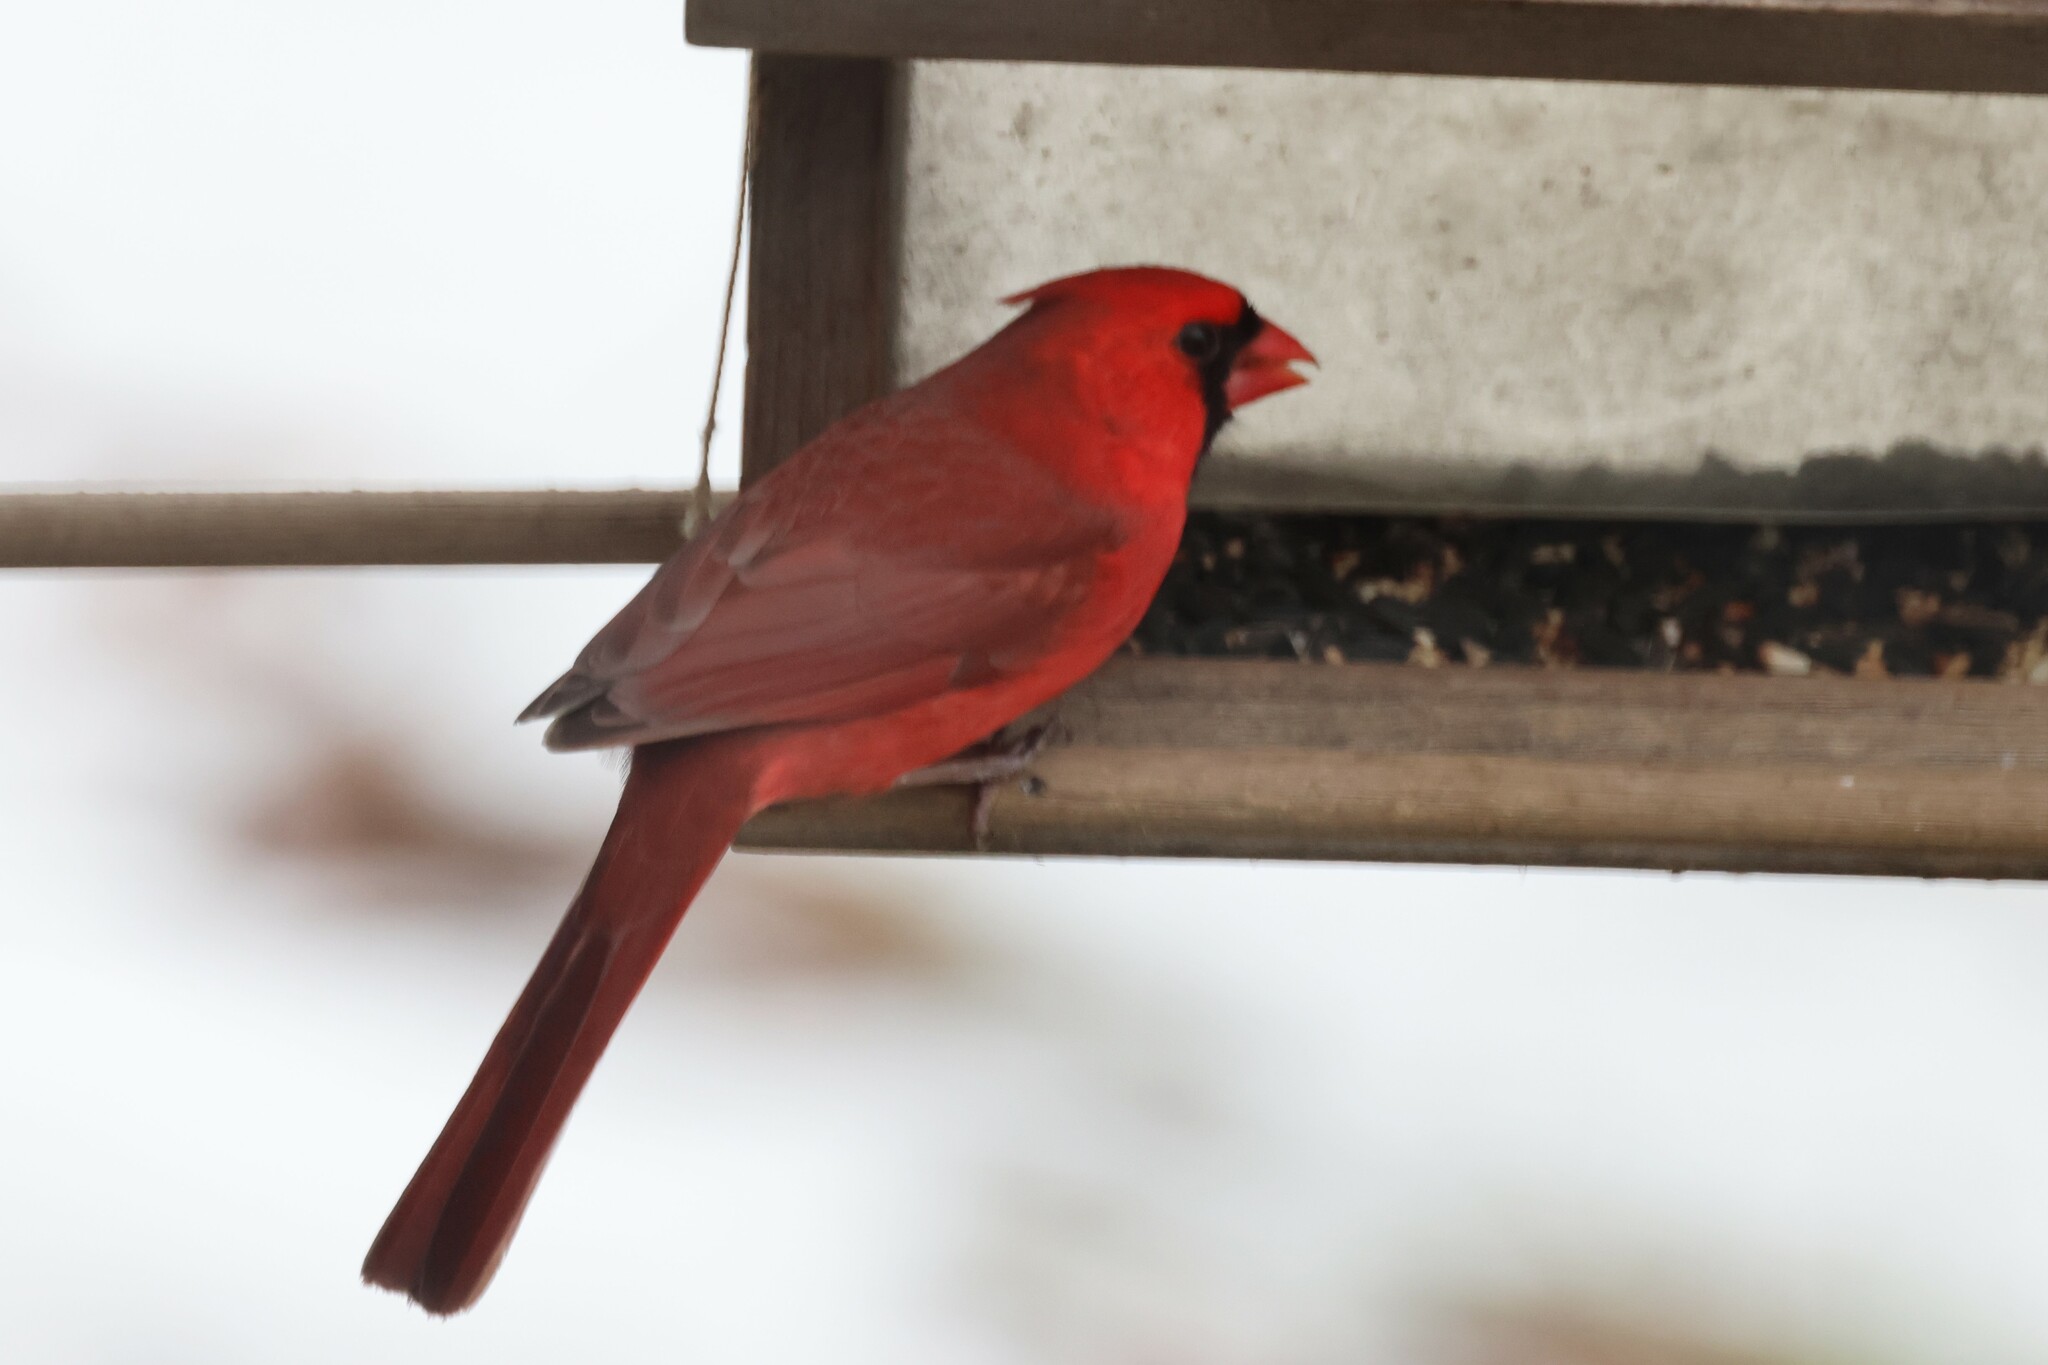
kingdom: Animalia
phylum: Chordata
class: Aves
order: Passeriformes
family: Cardinalidae
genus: Cardinalis
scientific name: Cardinalis cardinalis
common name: Northern cardinal
